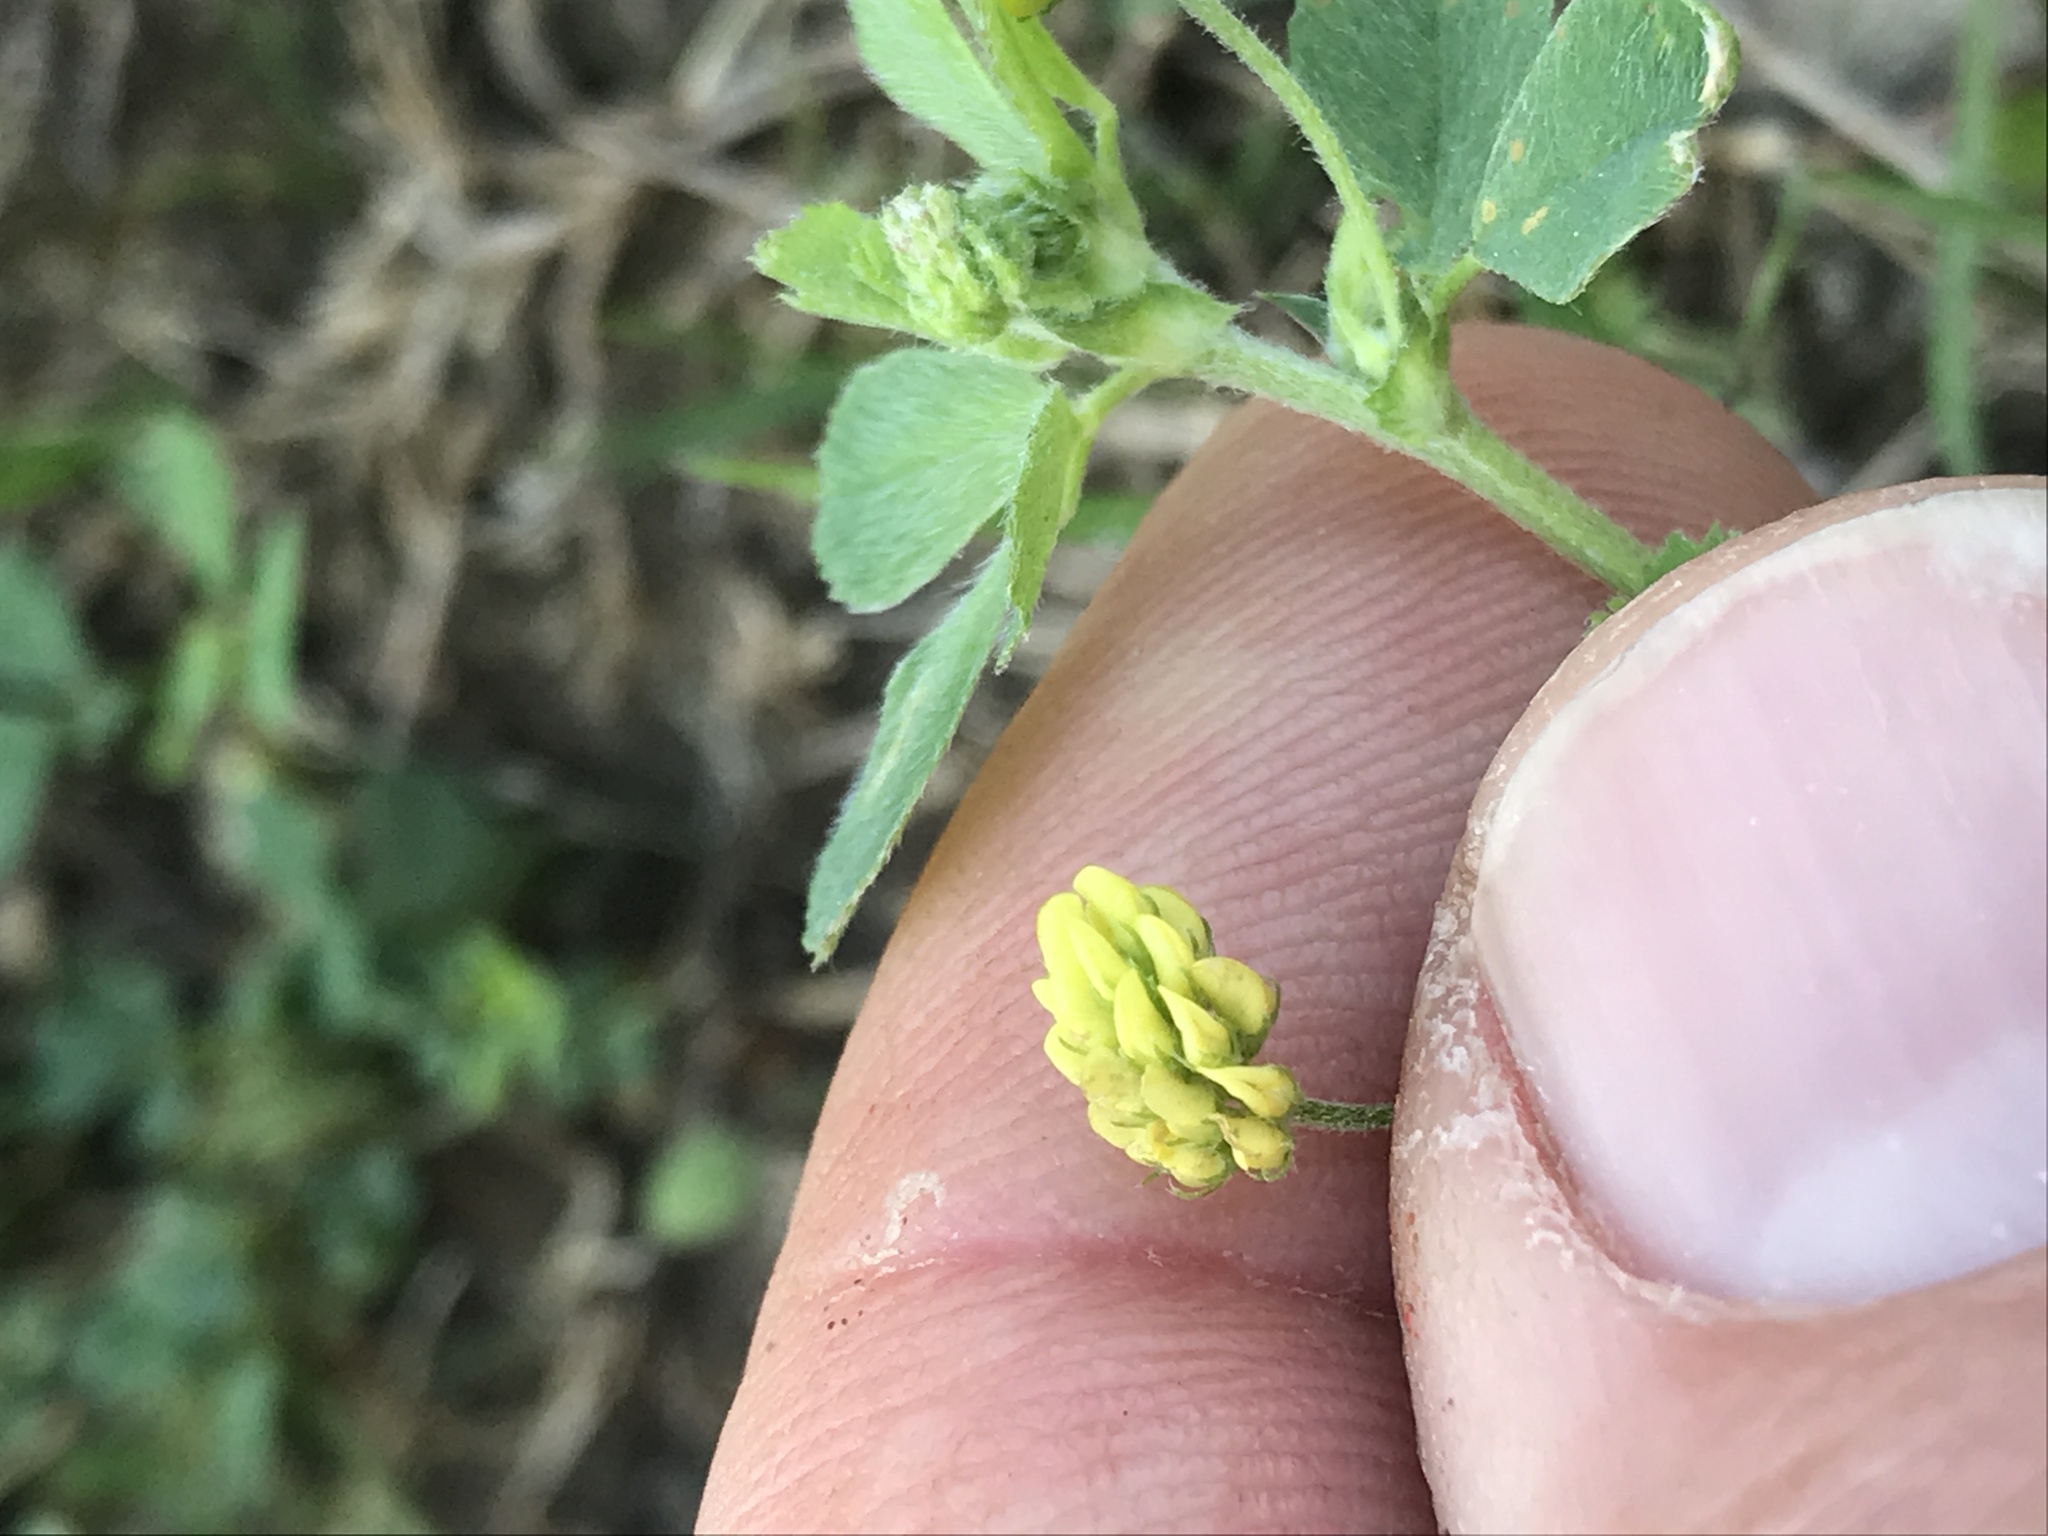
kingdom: Plantae
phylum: Tracheophyta
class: Magnoliopsida
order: Fabales
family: Fabaceae
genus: Medicago
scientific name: Medicago lupulina
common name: Black medick
